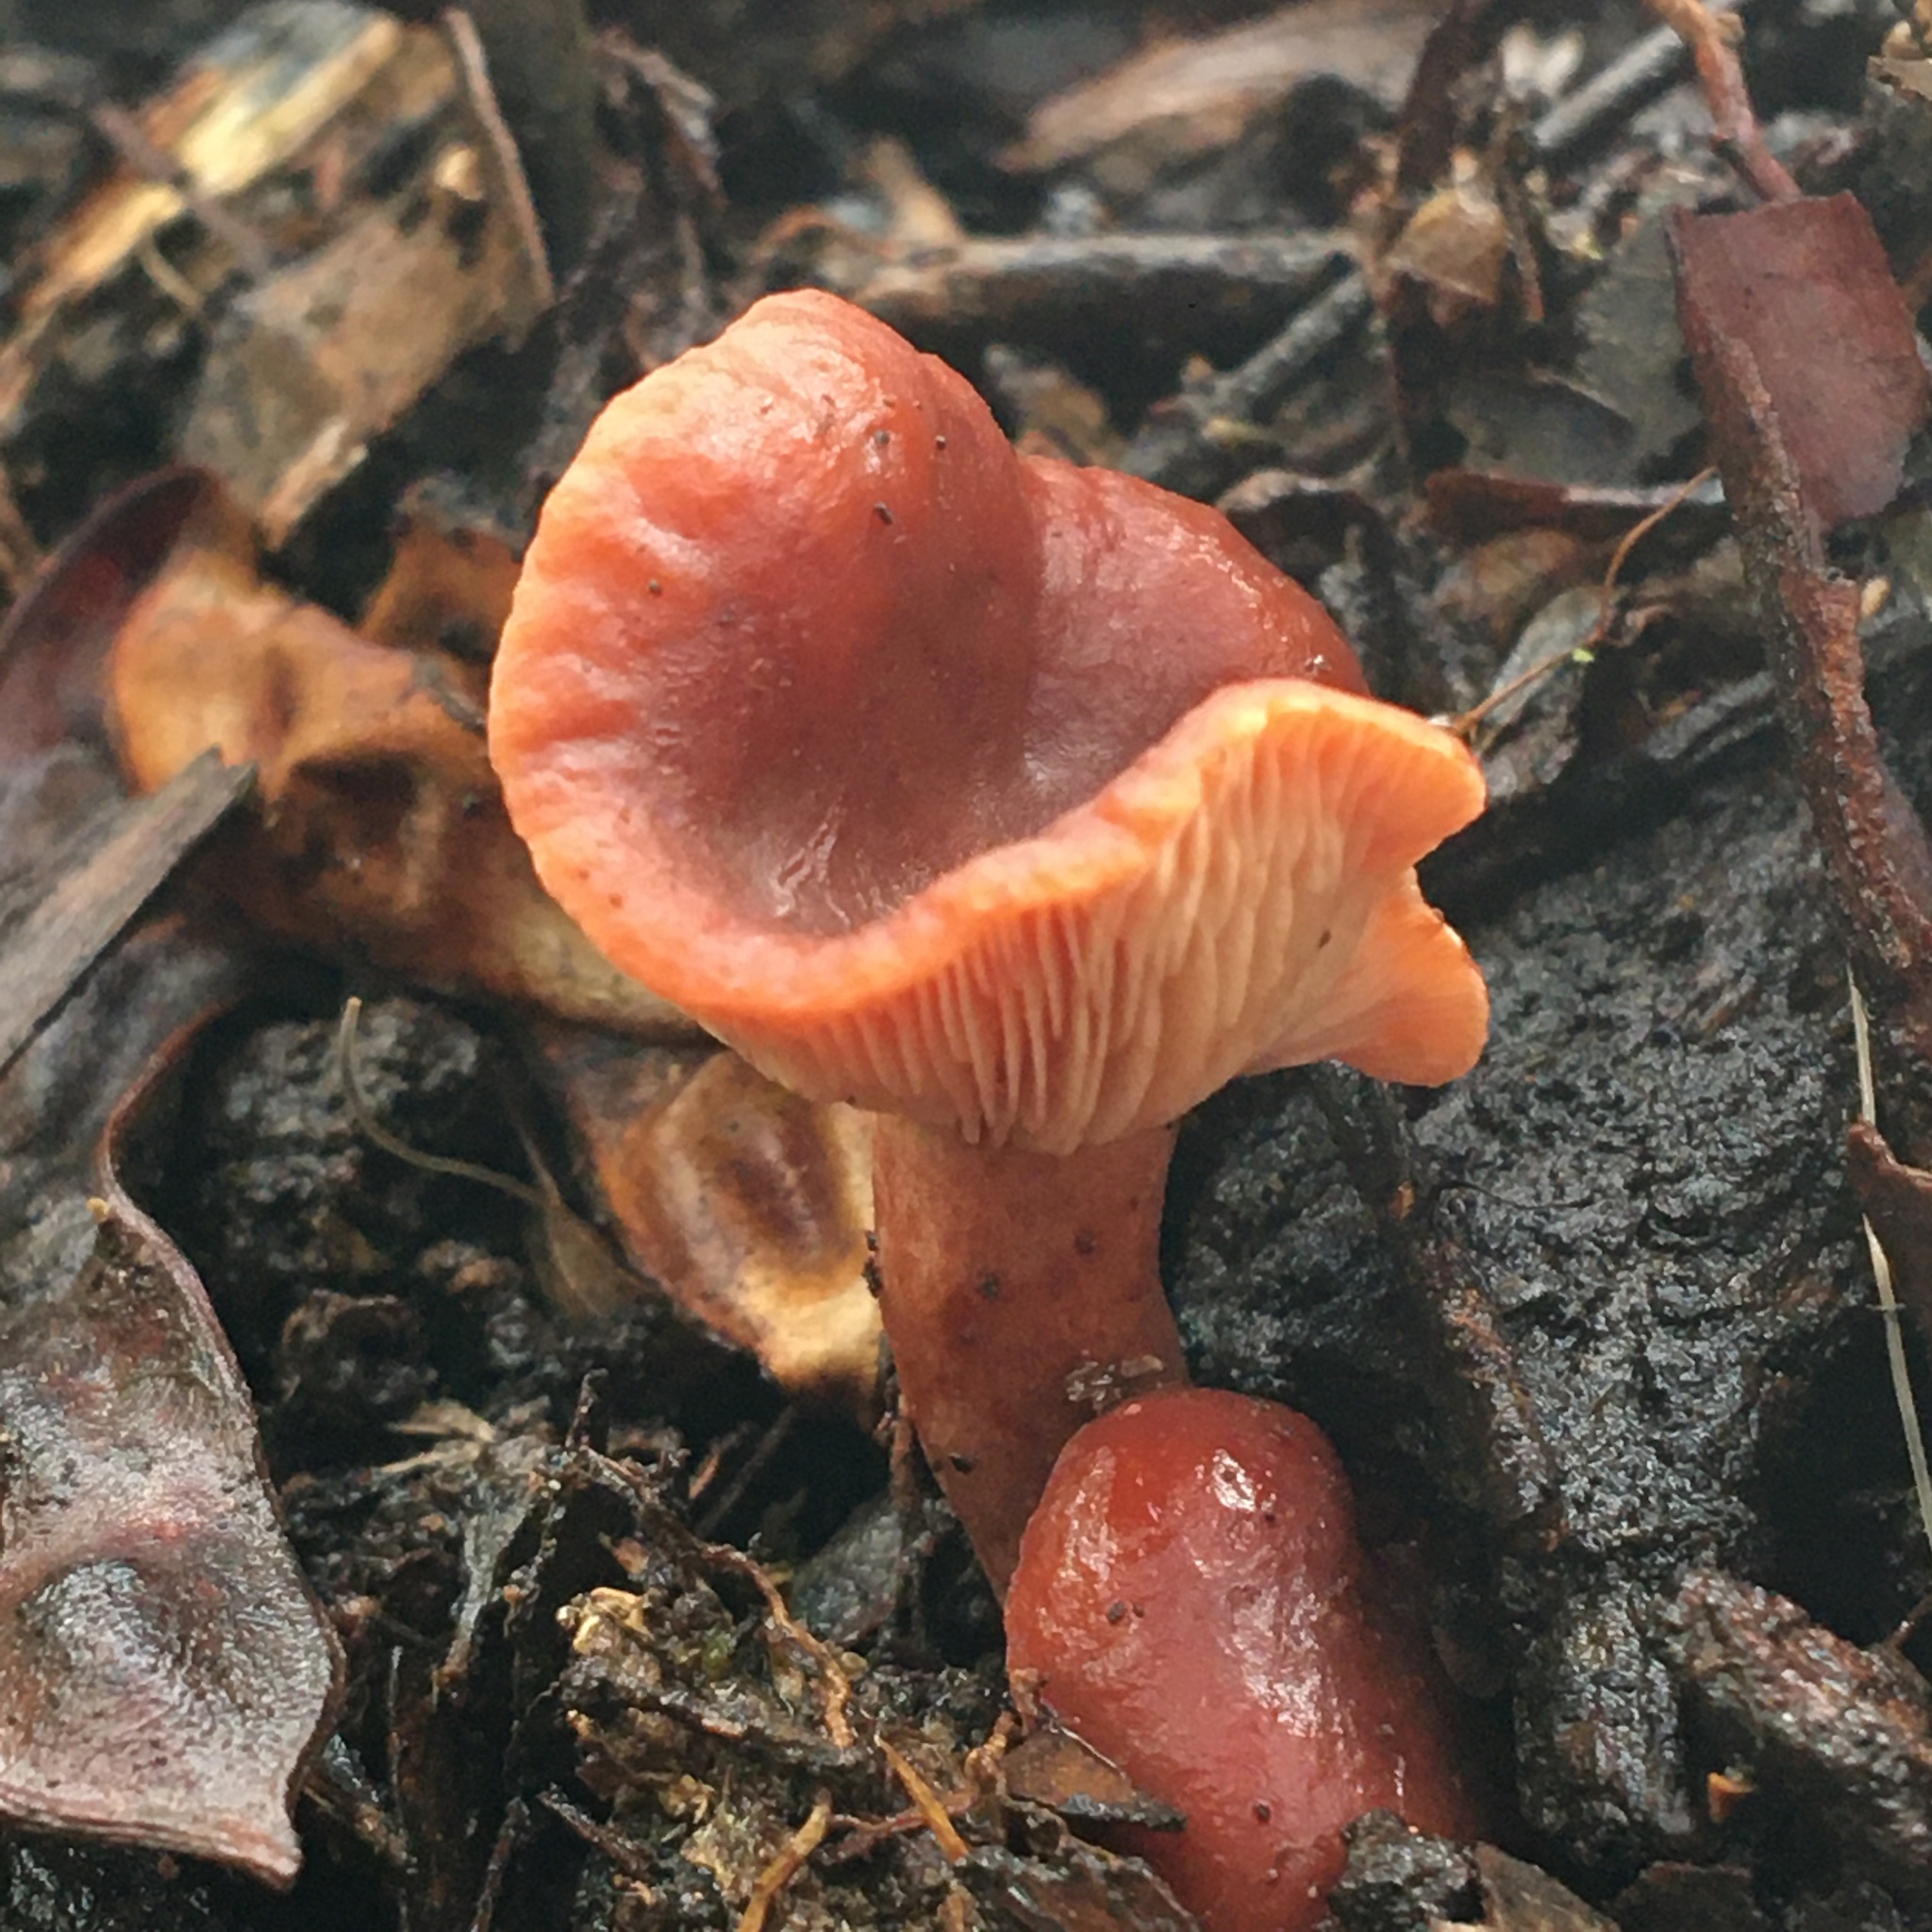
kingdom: Fungi
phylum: Basidiomycota
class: Agaricomycetes
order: Russulales
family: Russulaceae
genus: Lactarius
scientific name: Lactarius eucalypti
